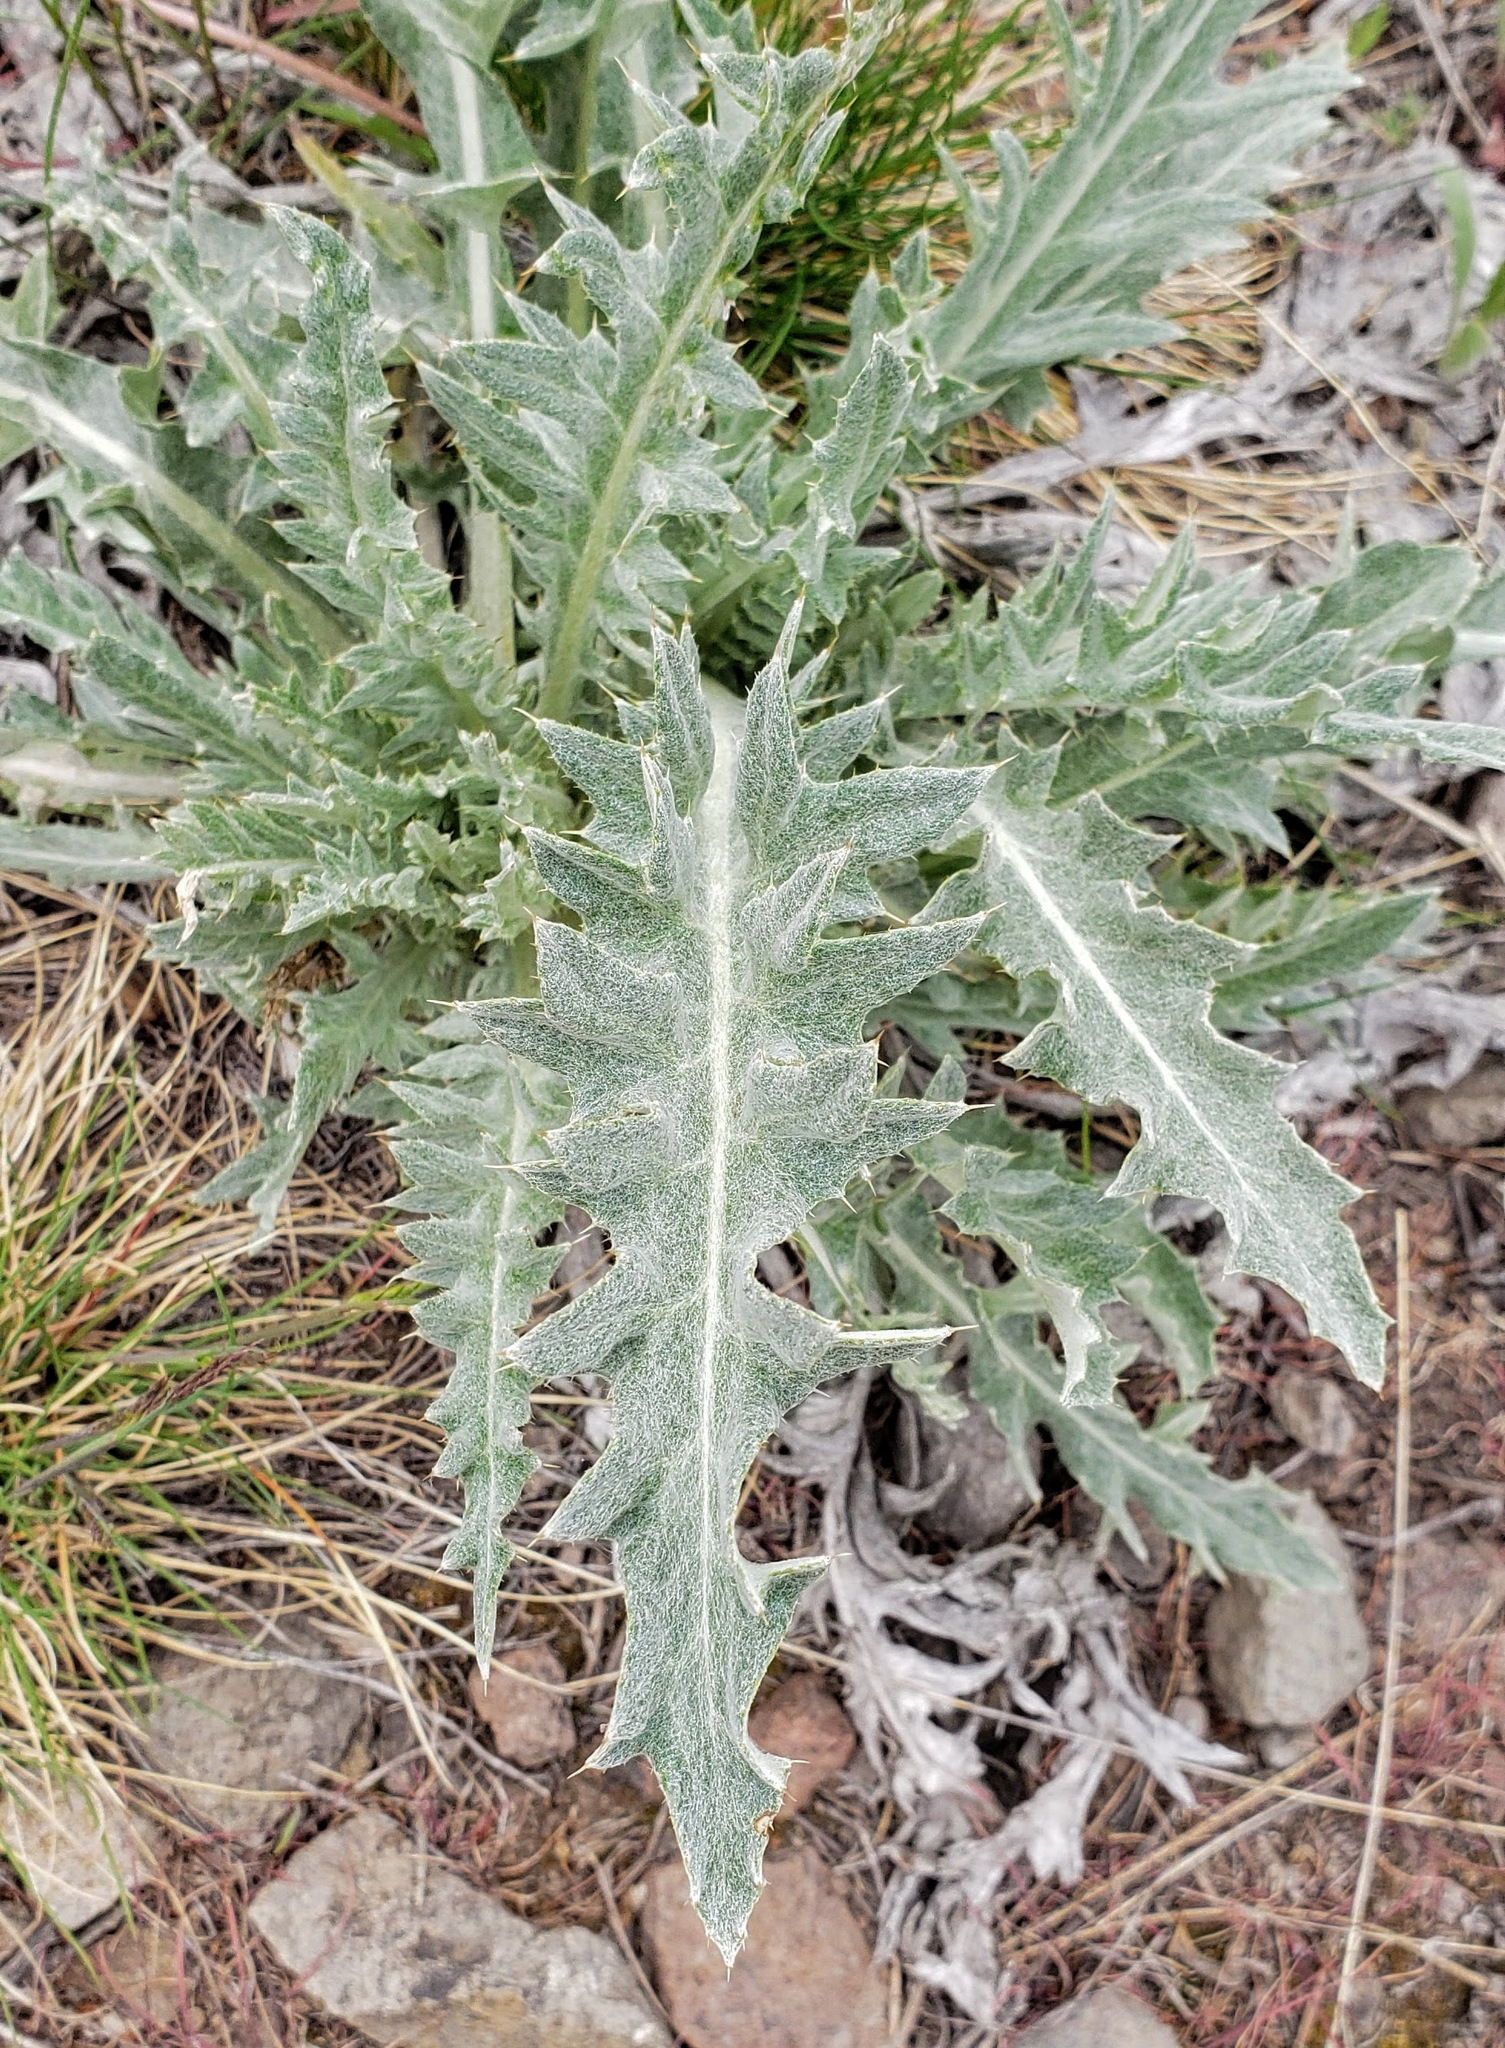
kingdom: Plantae
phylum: Tracheophyta
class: Magnoliopsida
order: Asterales
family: Asteraceae
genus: Cirsium
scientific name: Cirsium undulatum
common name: Pasture thistle
